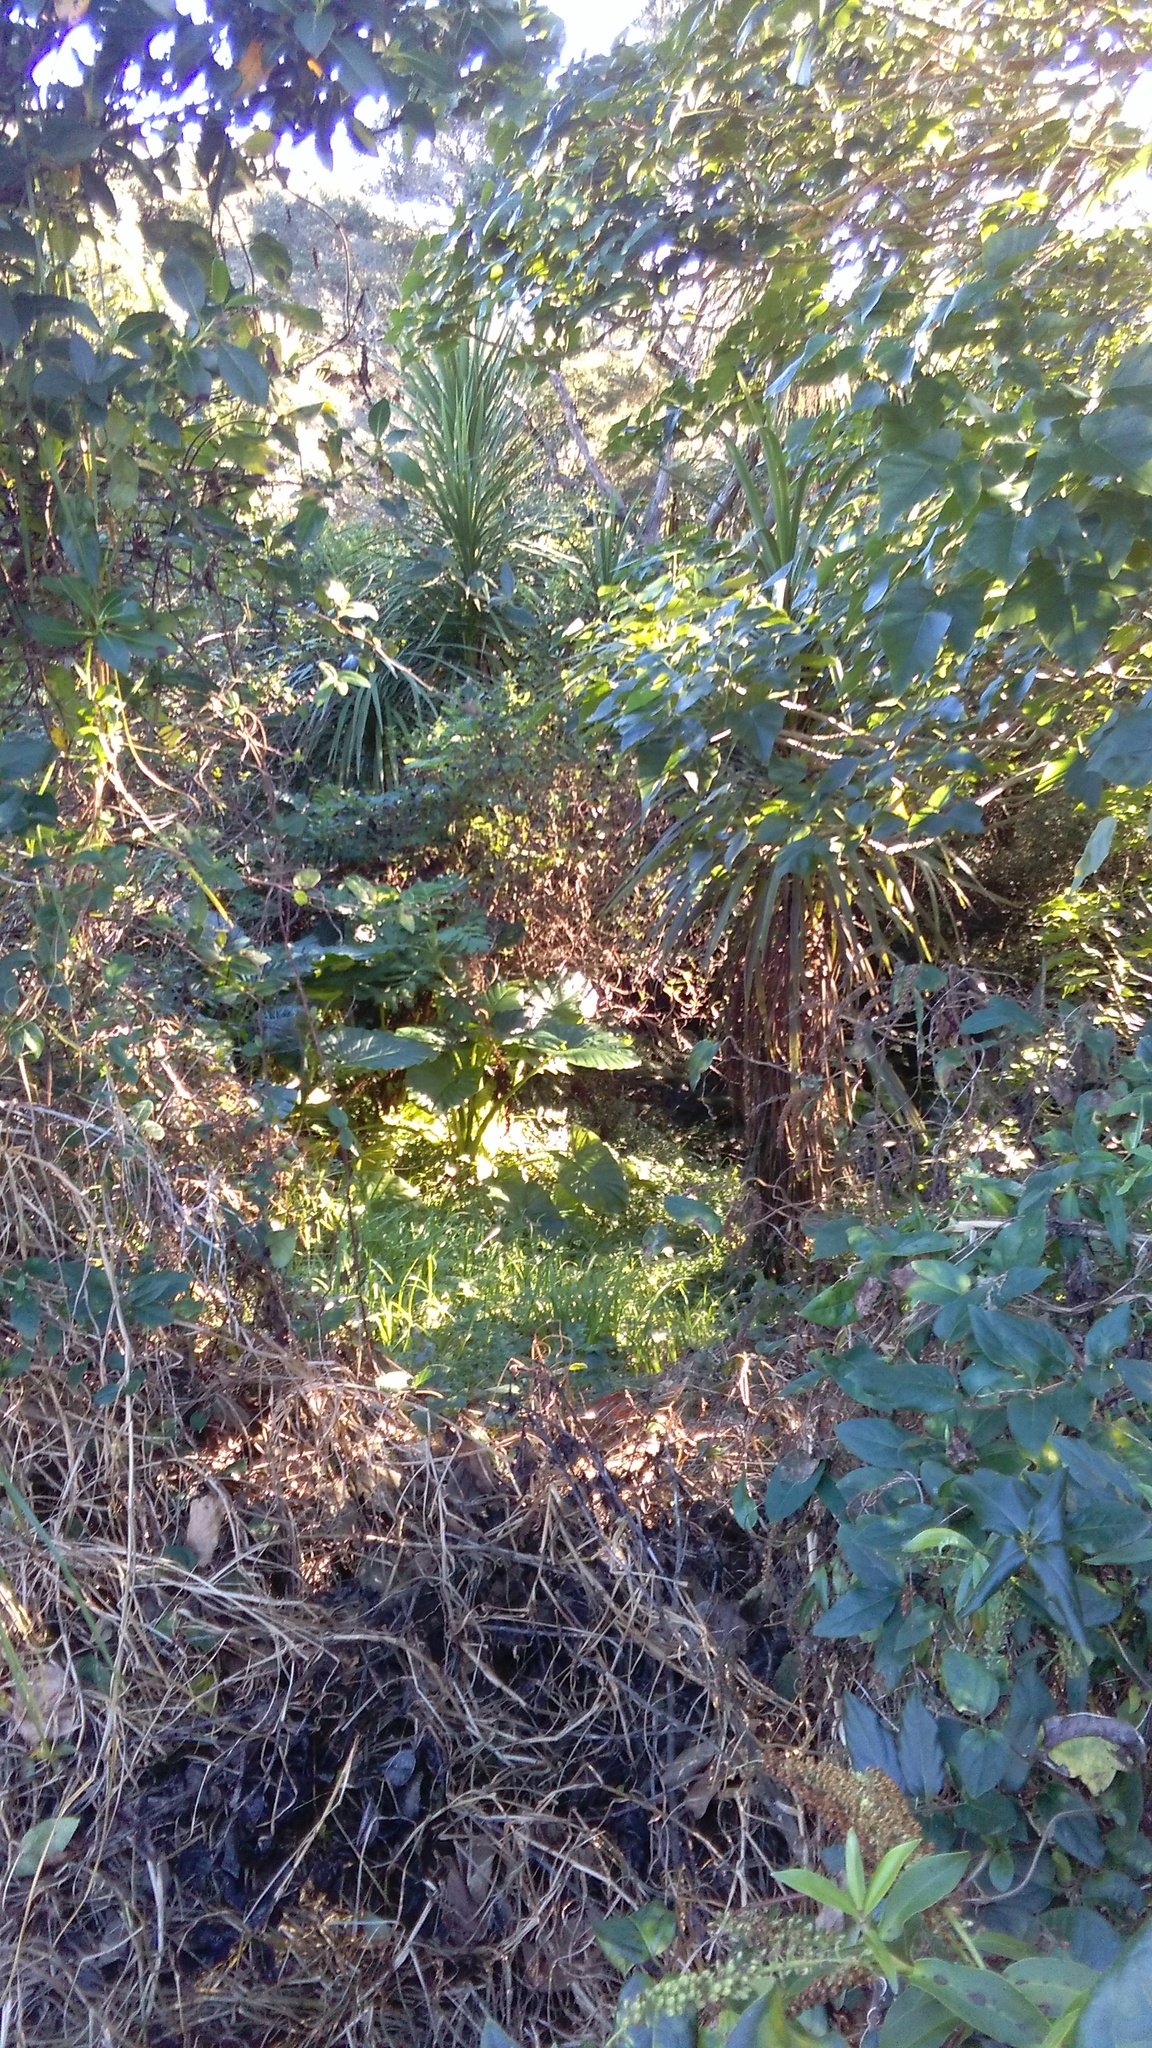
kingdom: Plantae
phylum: Tracheophyta
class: Liliopsida
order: Poales
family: Poaceae
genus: Cenchrus
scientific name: Cenchrus clandestinus
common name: Kikuyugrass
